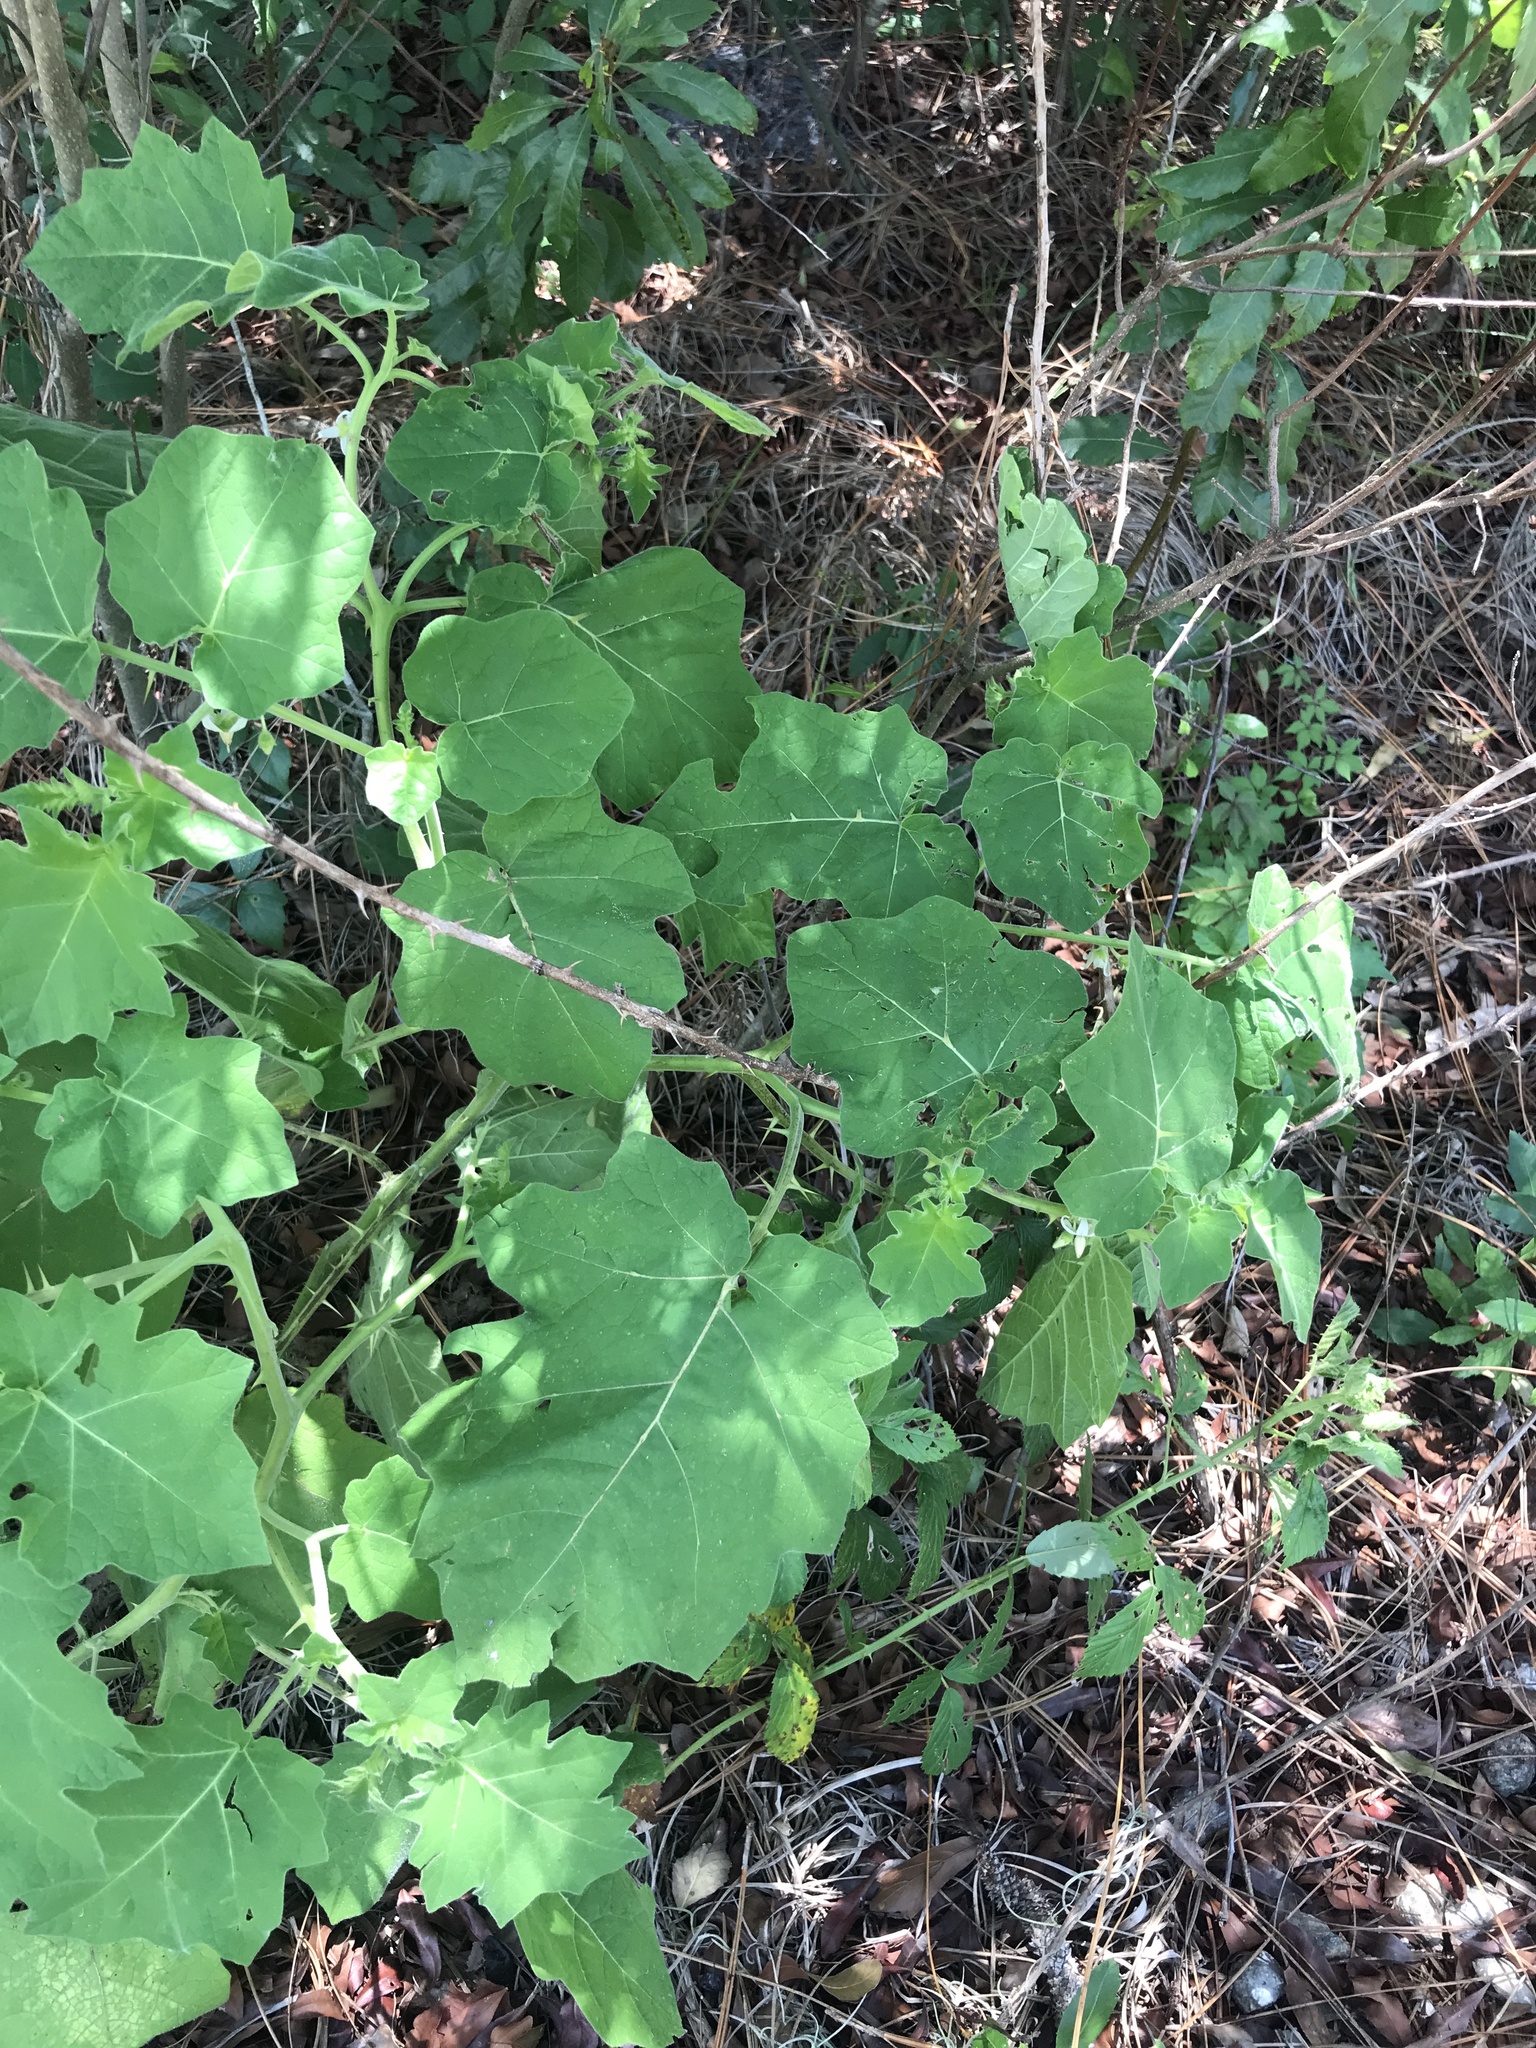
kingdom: Plantae
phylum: Tracheophyta
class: Magnoliopsida
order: Solanales
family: Solanaceae
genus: Solanum
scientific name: Solanum viarum
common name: Tropical soda apple
